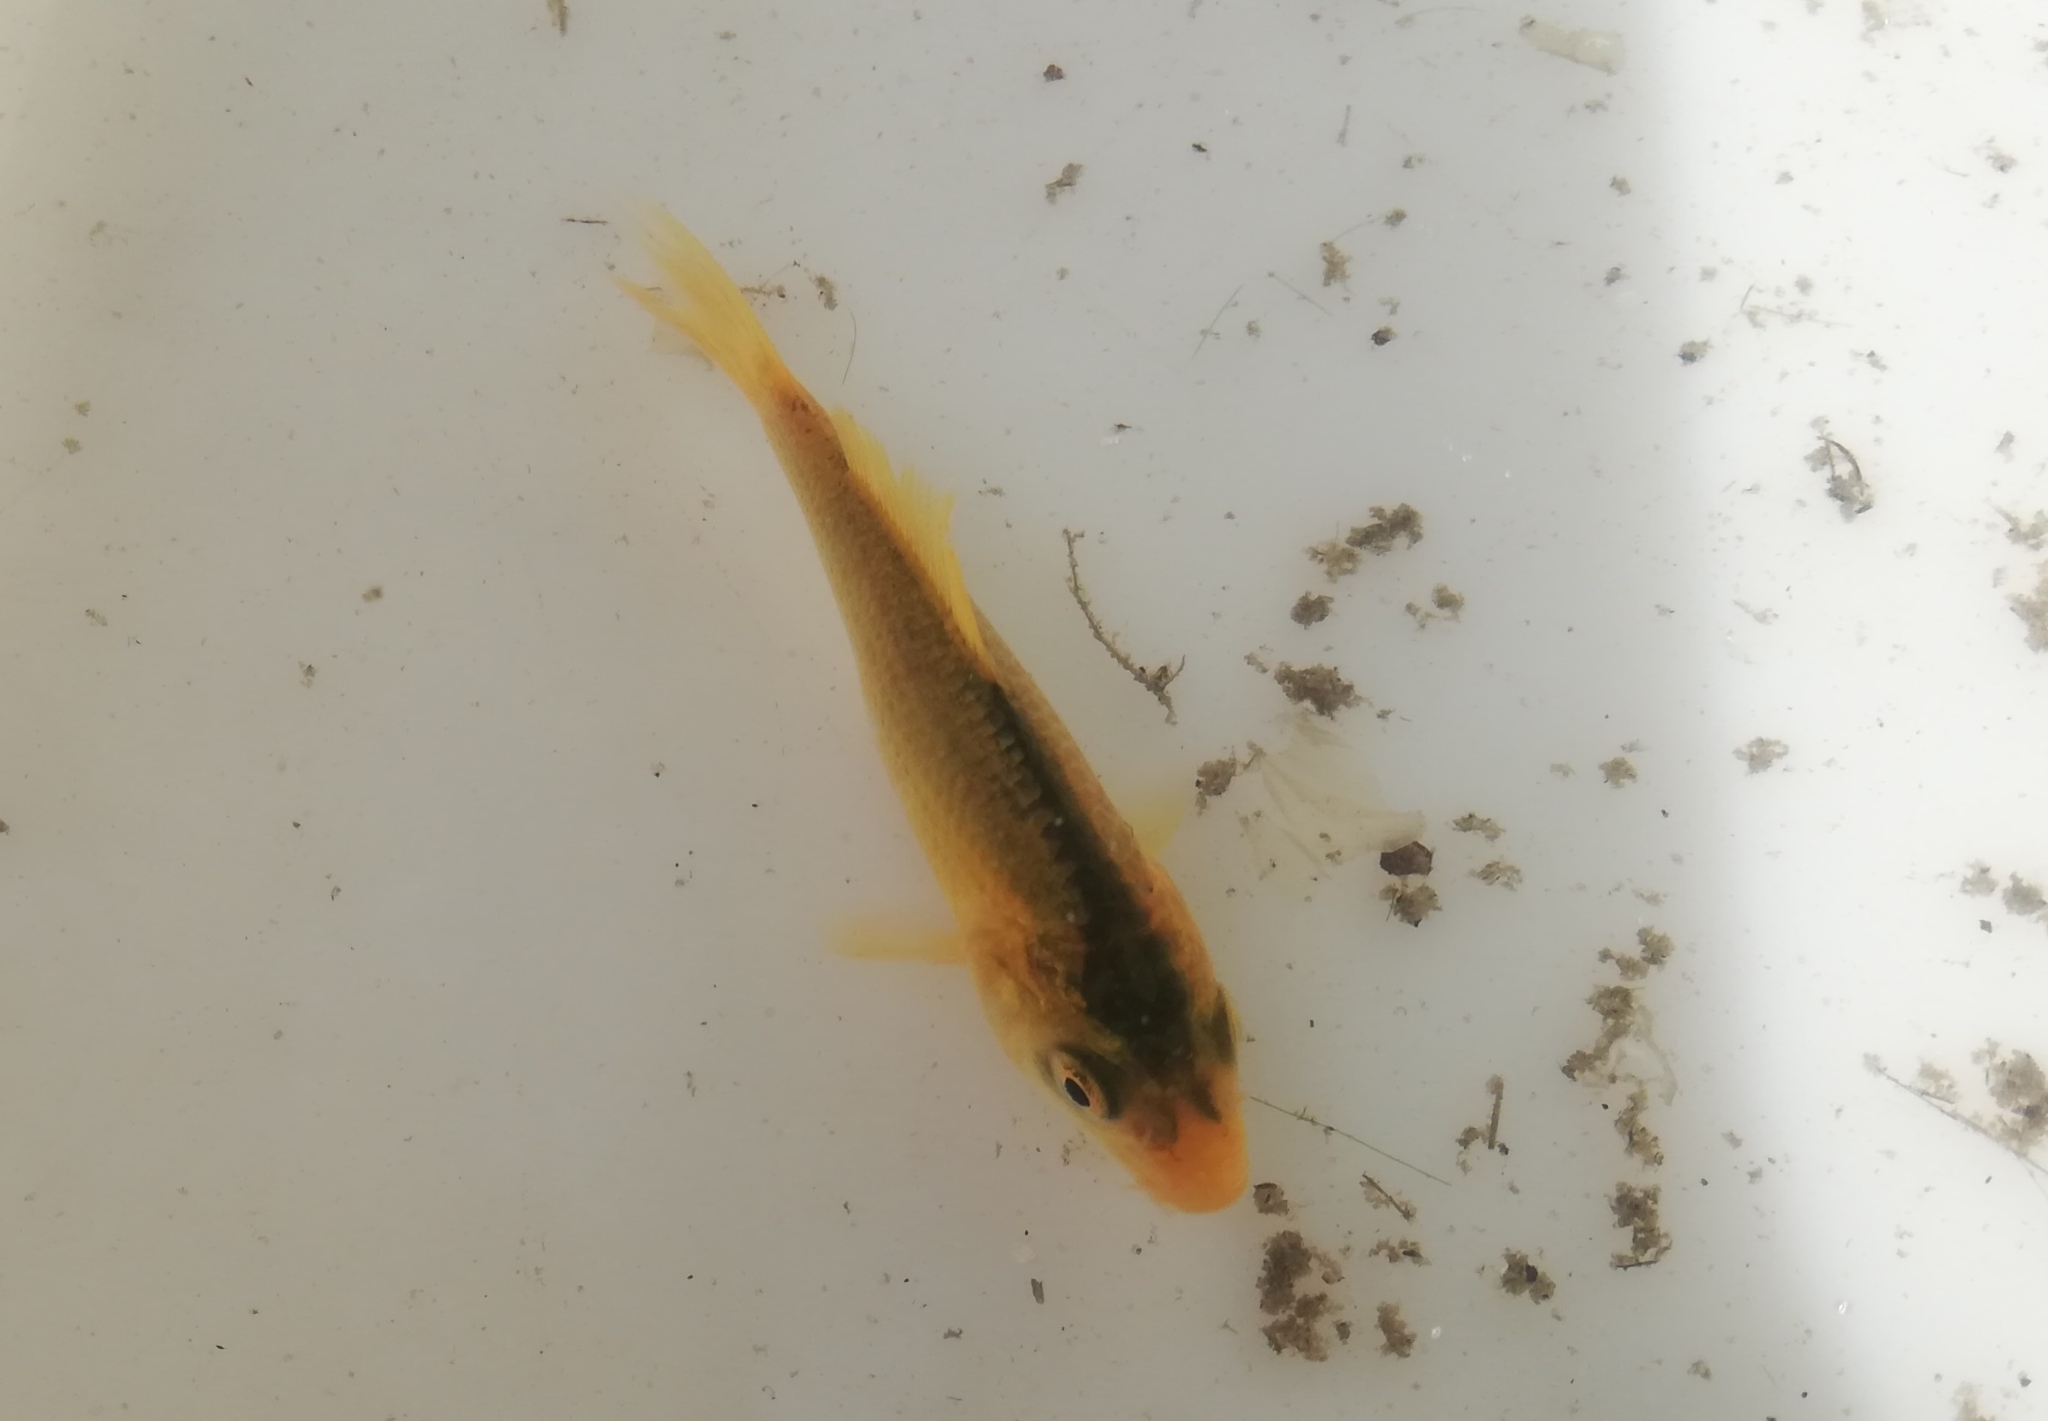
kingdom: Animalia
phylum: Chordata
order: Cypriniformes
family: Cyprinidae
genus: Cyprinus
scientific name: Cyprinus rubrofuscus
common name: Koi
